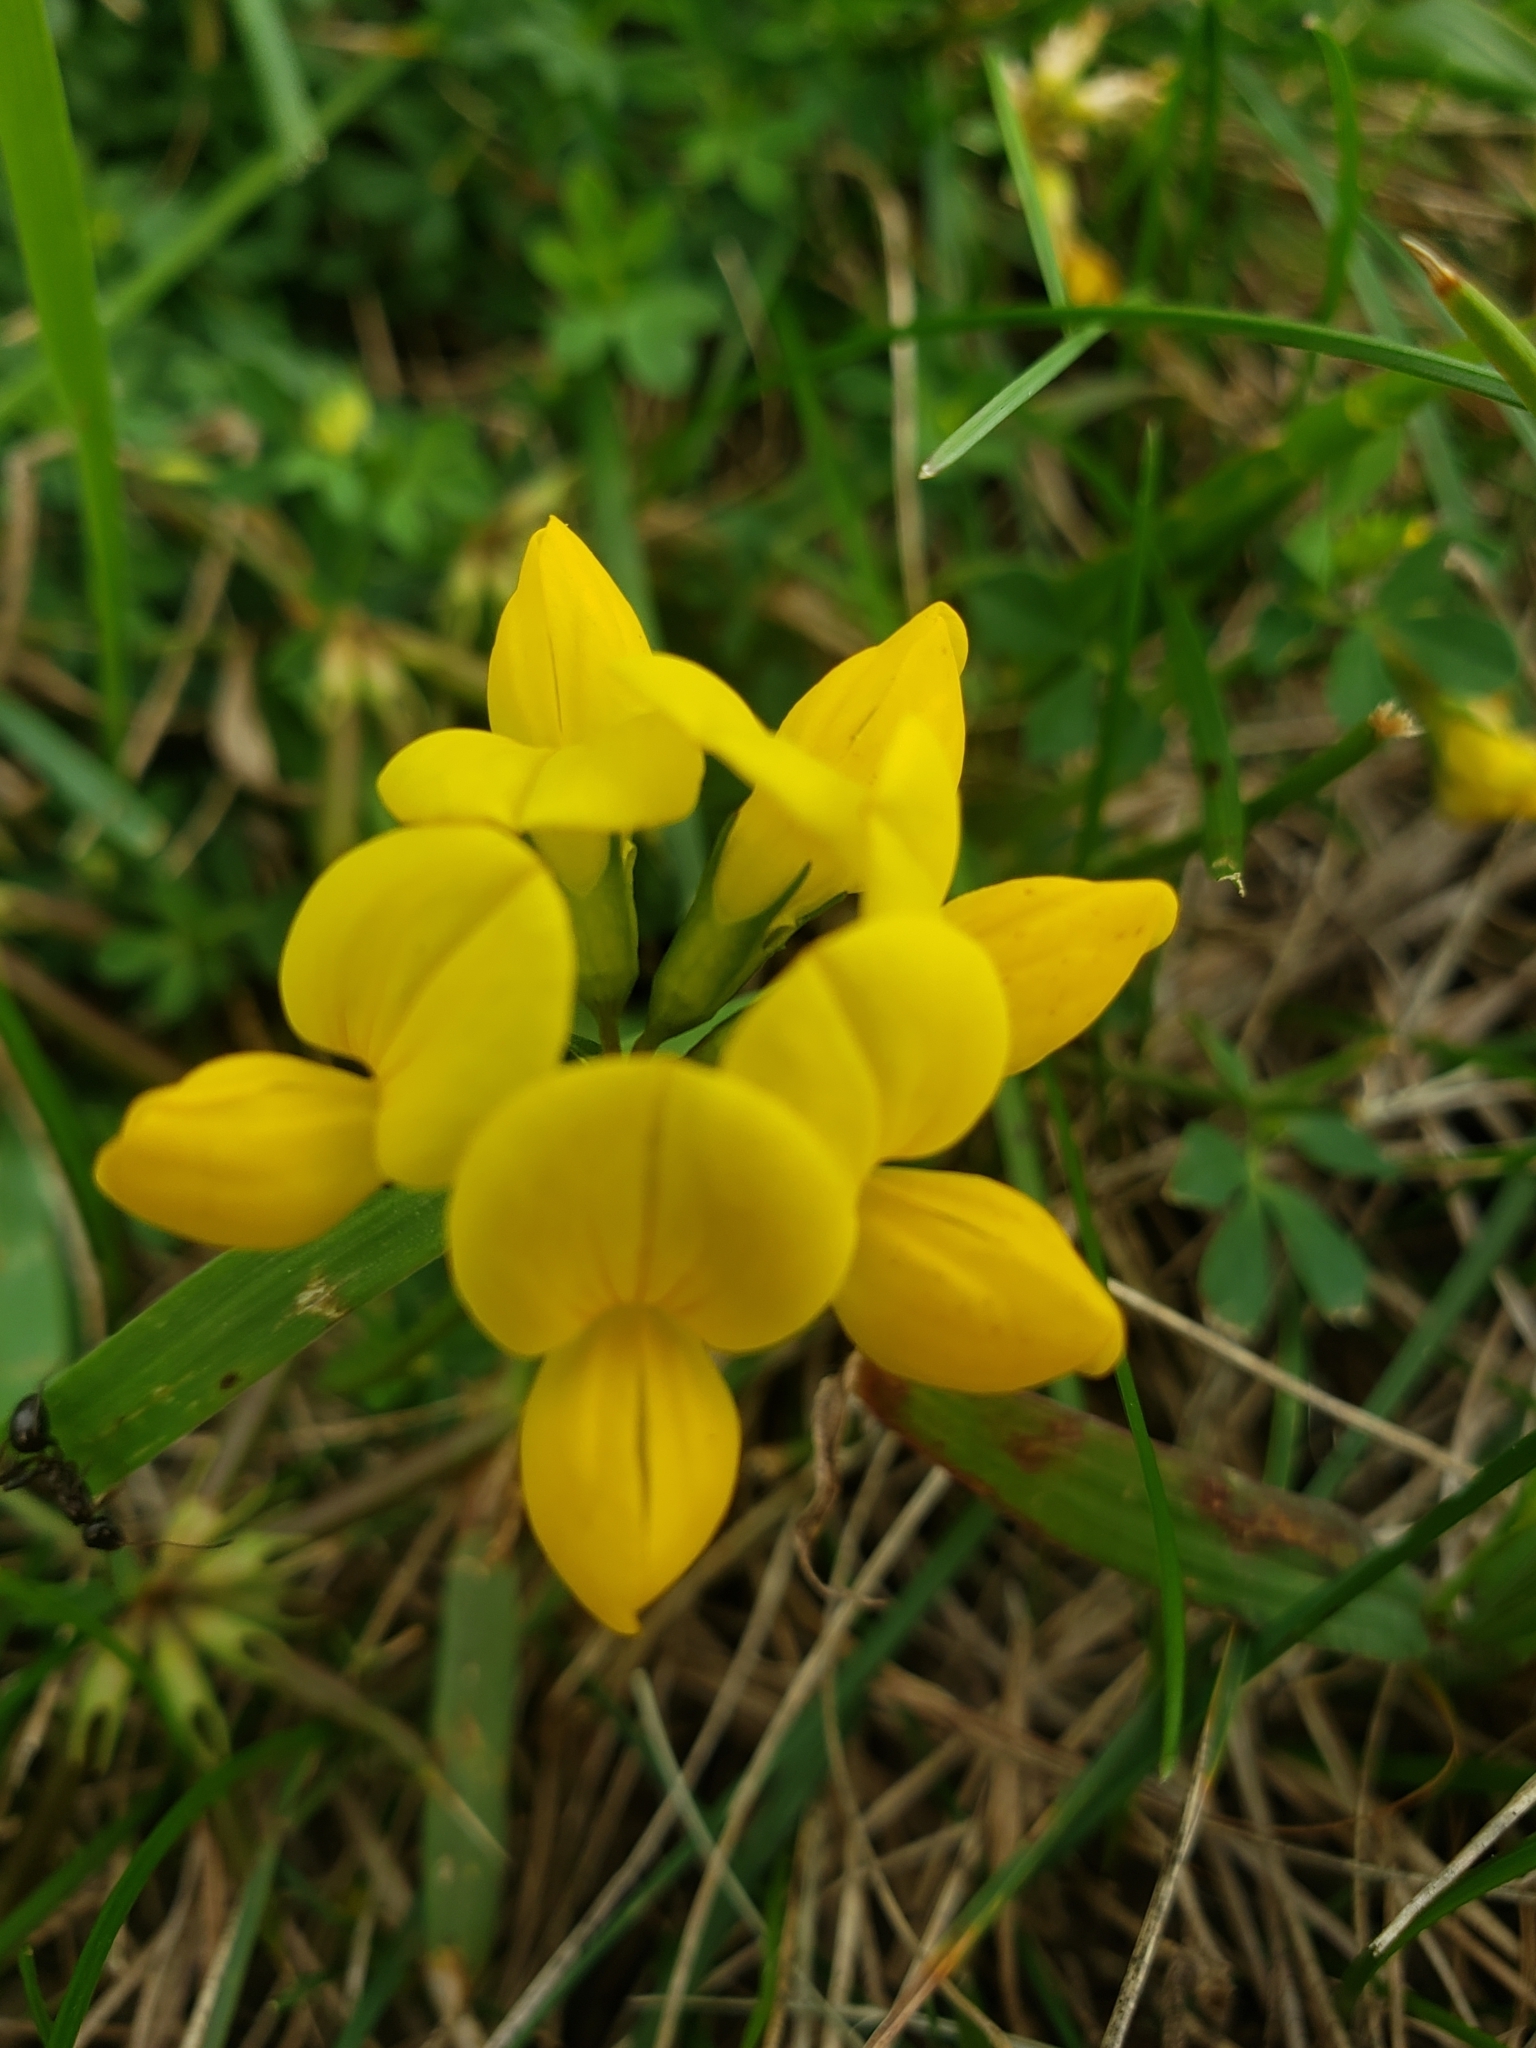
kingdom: Plantae
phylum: Tracheophyta
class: Magnoliopsida
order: Fabales
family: Fabaceae
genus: Lotus
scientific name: Lotus corniculatus
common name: Common bird's-foot-trefoil
